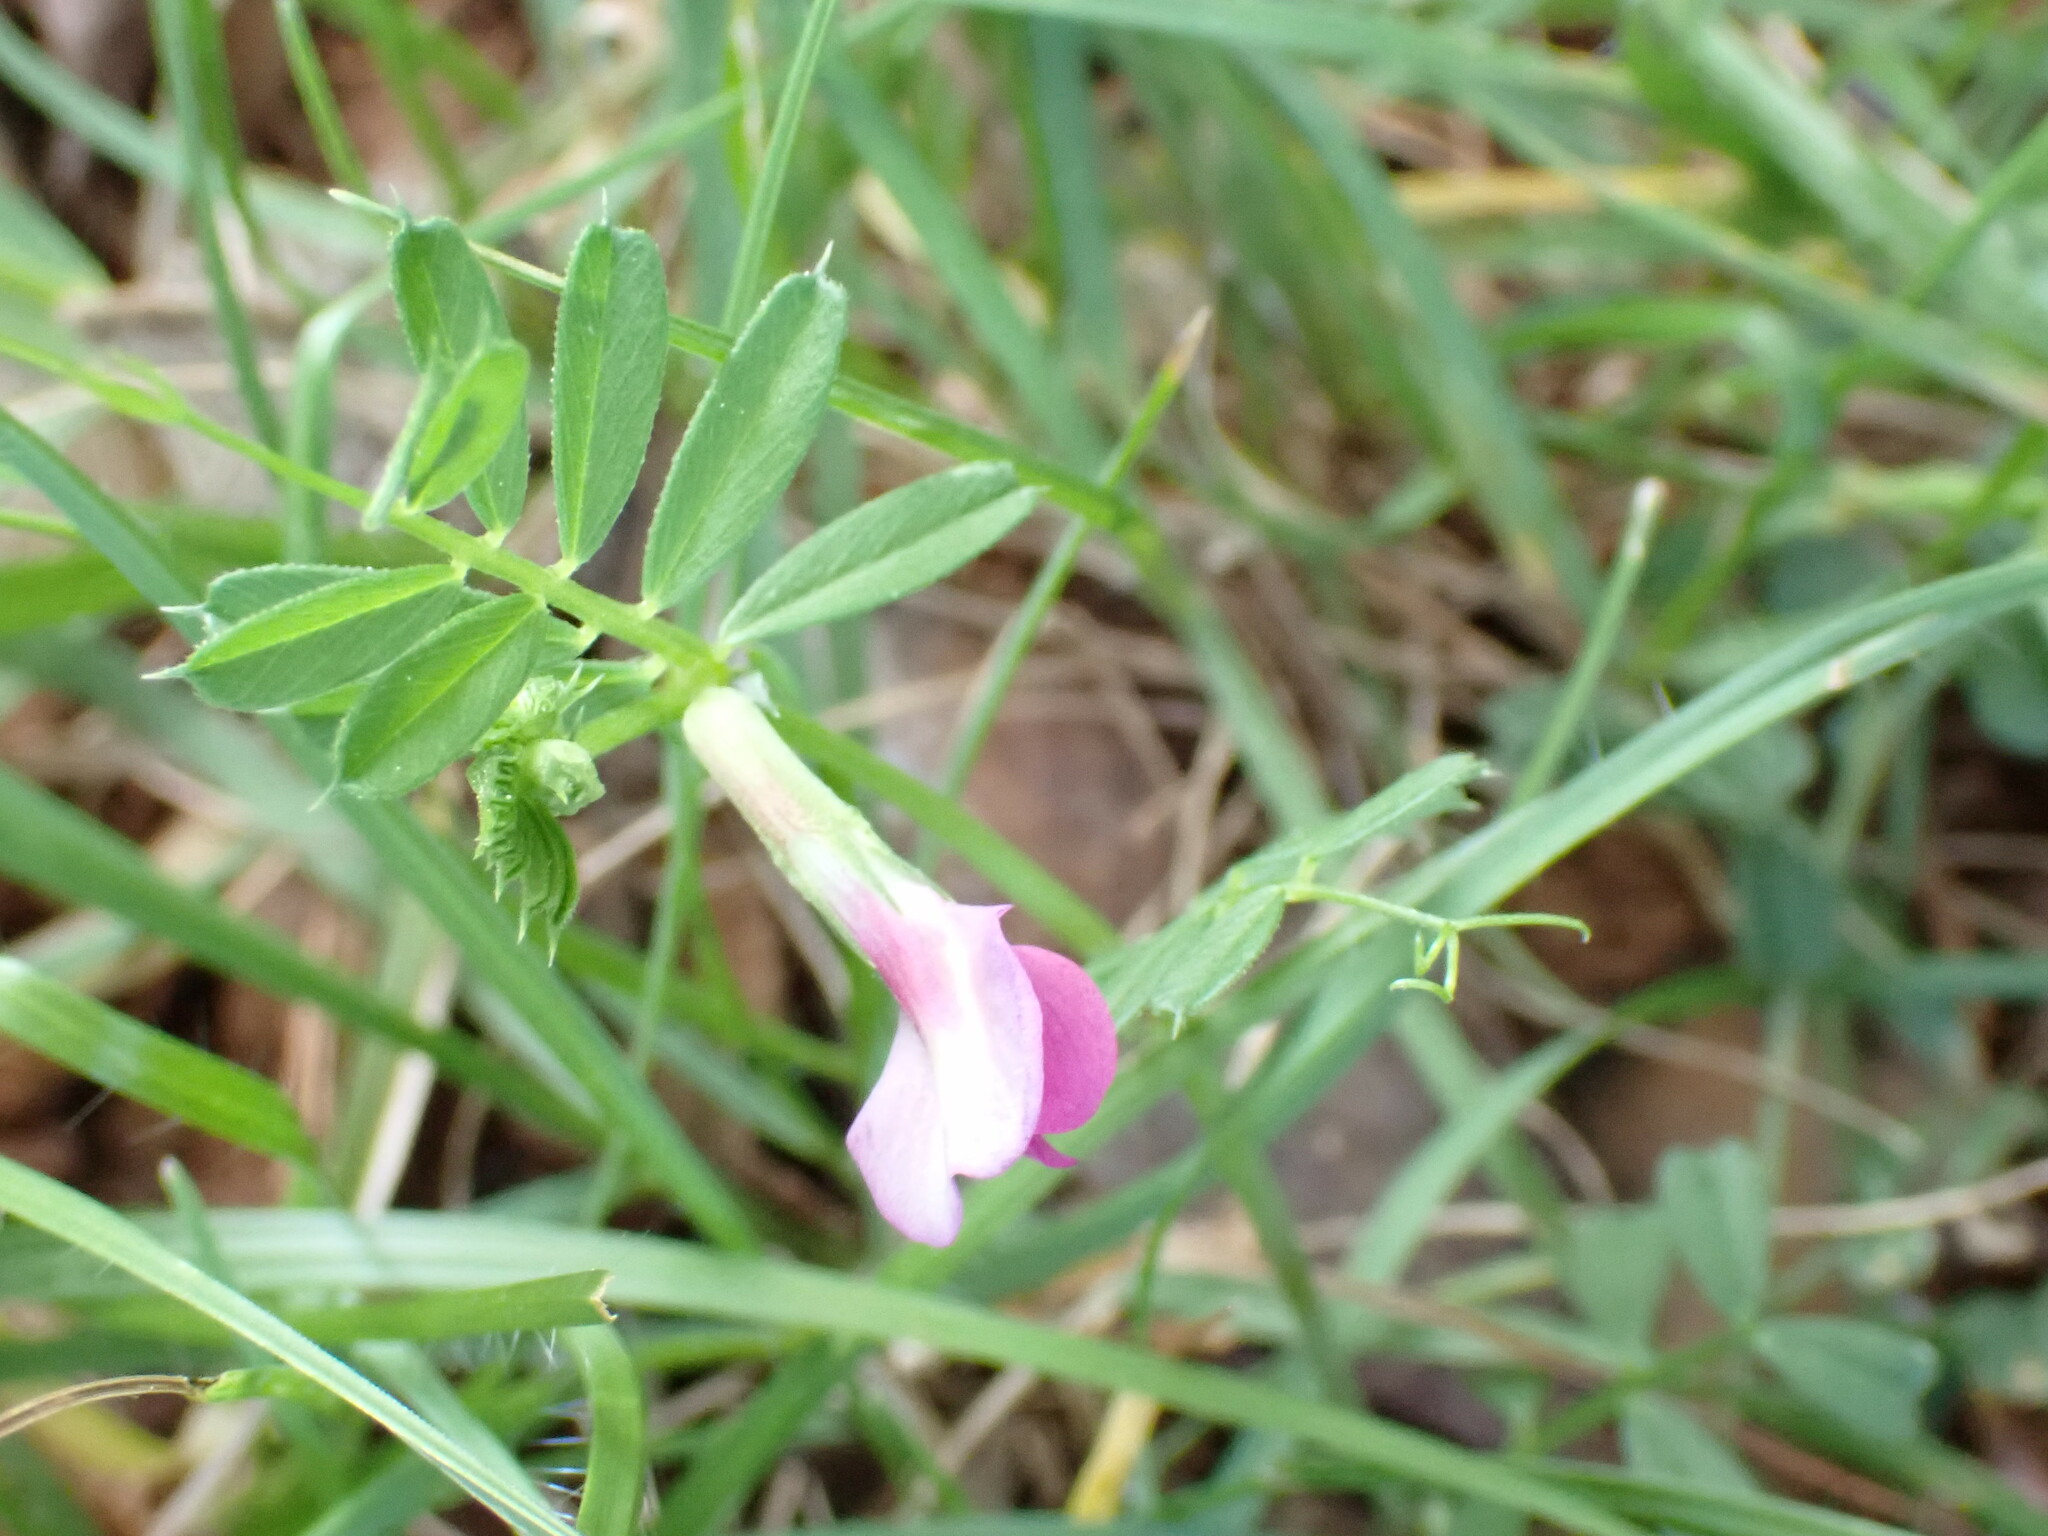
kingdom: Plantae
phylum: Tracheophyta
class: Magnoliopsida
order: Fabales
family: Fabaceae
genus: Vicia
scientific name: Vicia sativa
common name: Garden vetch
